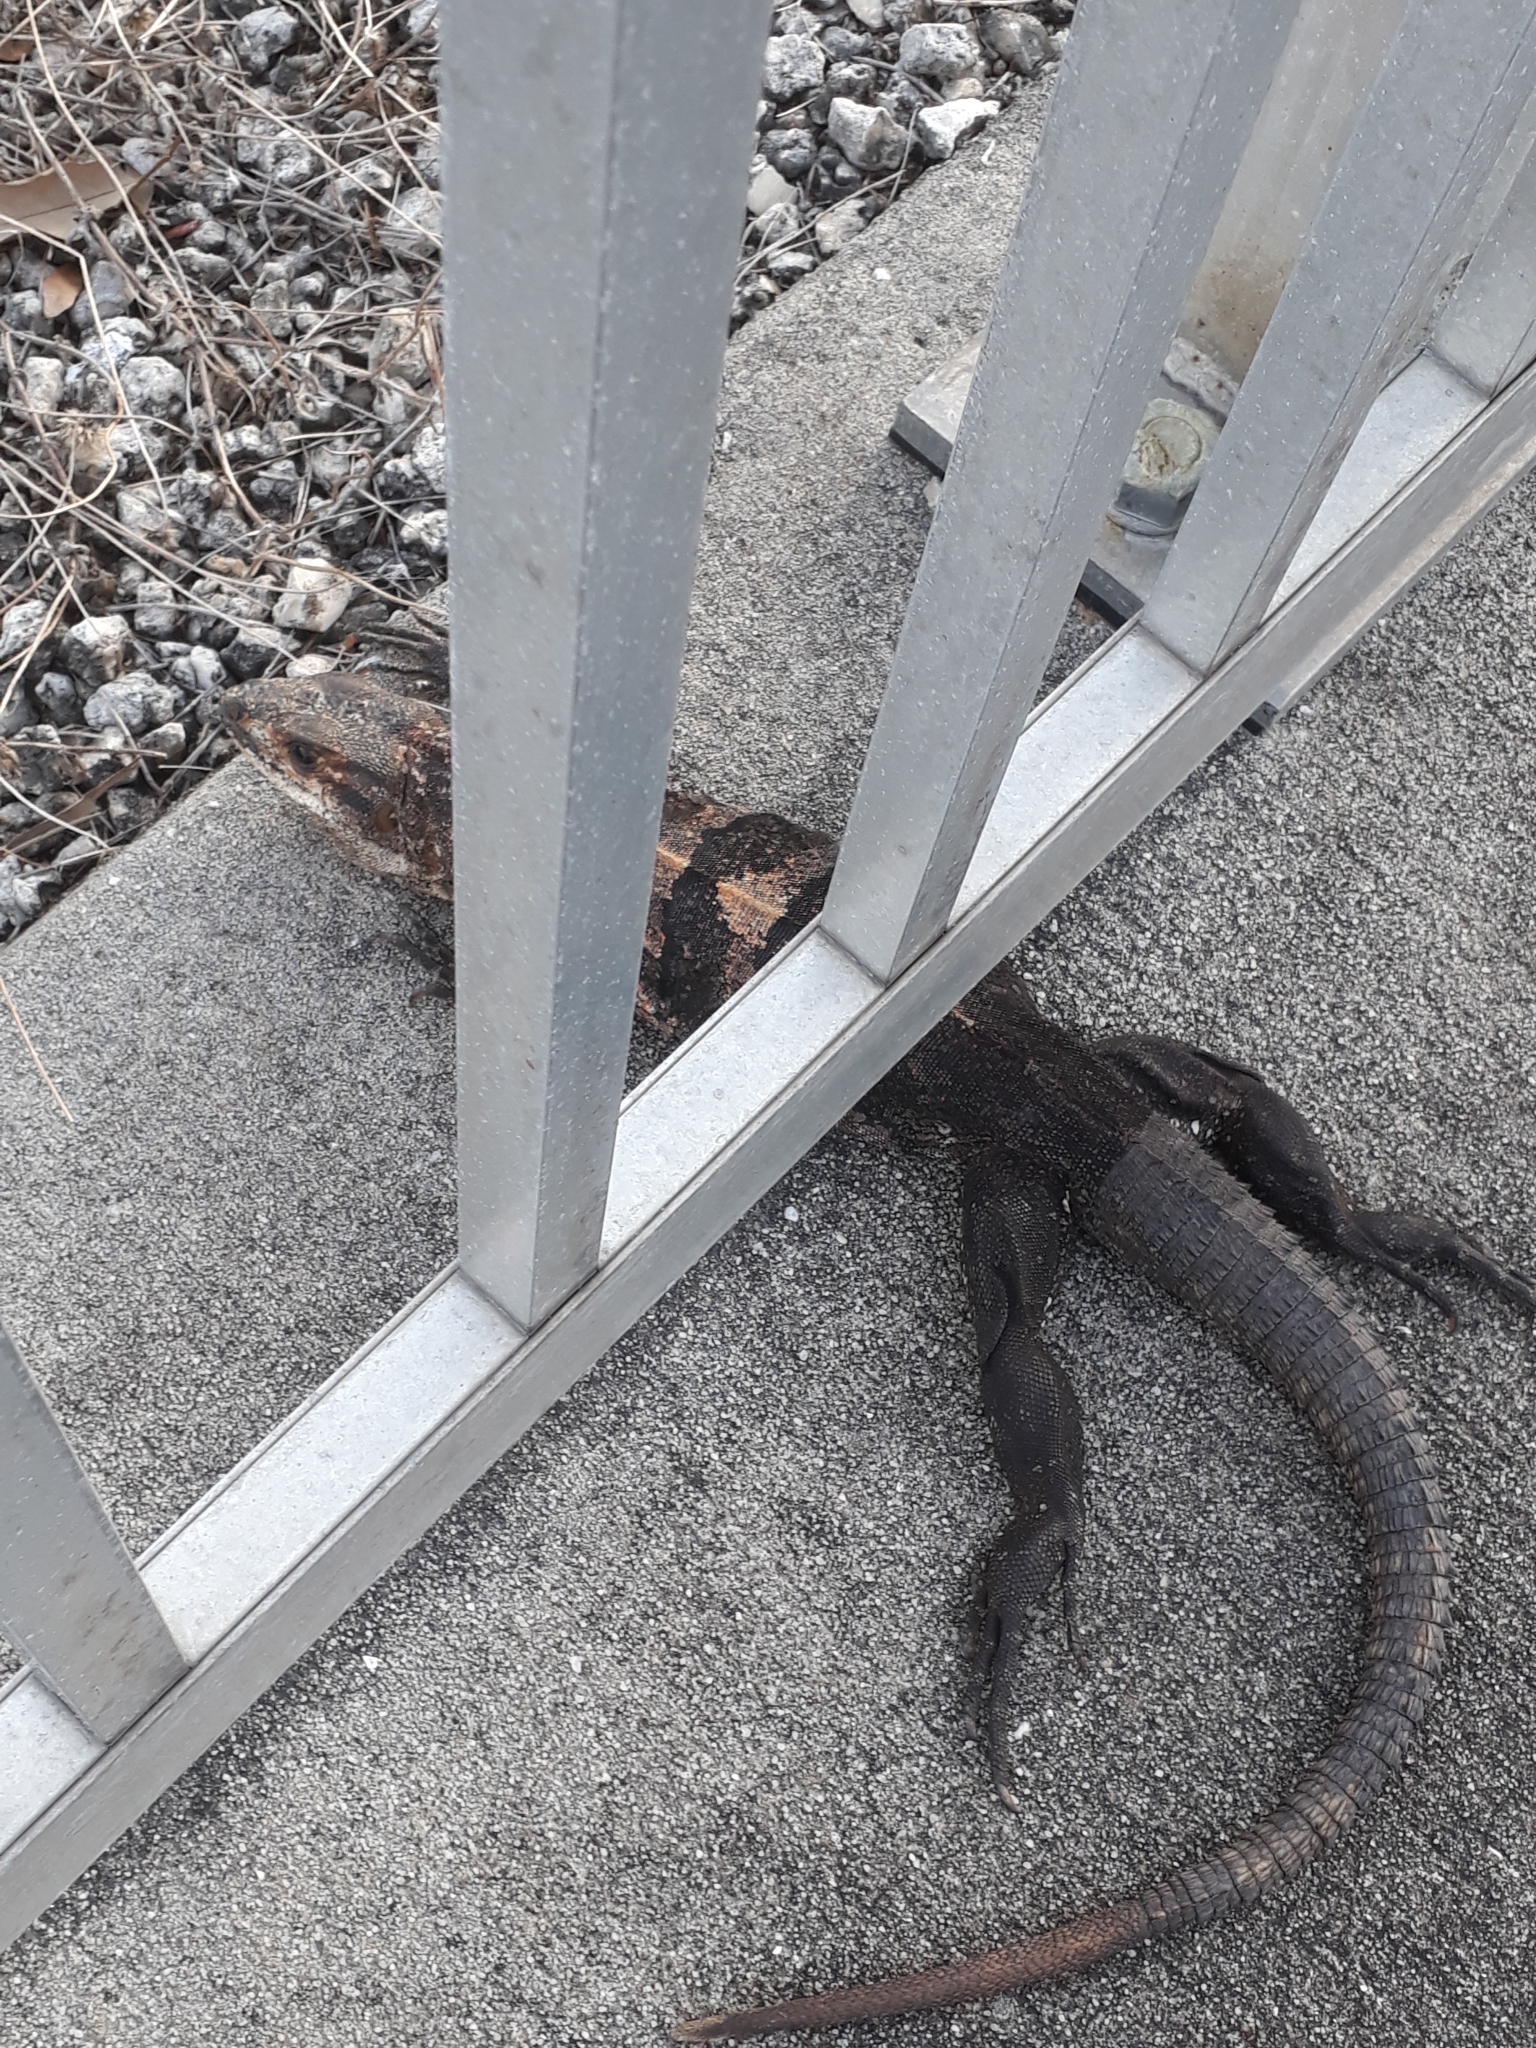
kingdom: Animalia
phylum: Chordata
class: Squamata
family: Iguanidae
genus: Ctenosaura
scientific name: Ctenosaura similis
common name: Black spiny-tailed iguana
